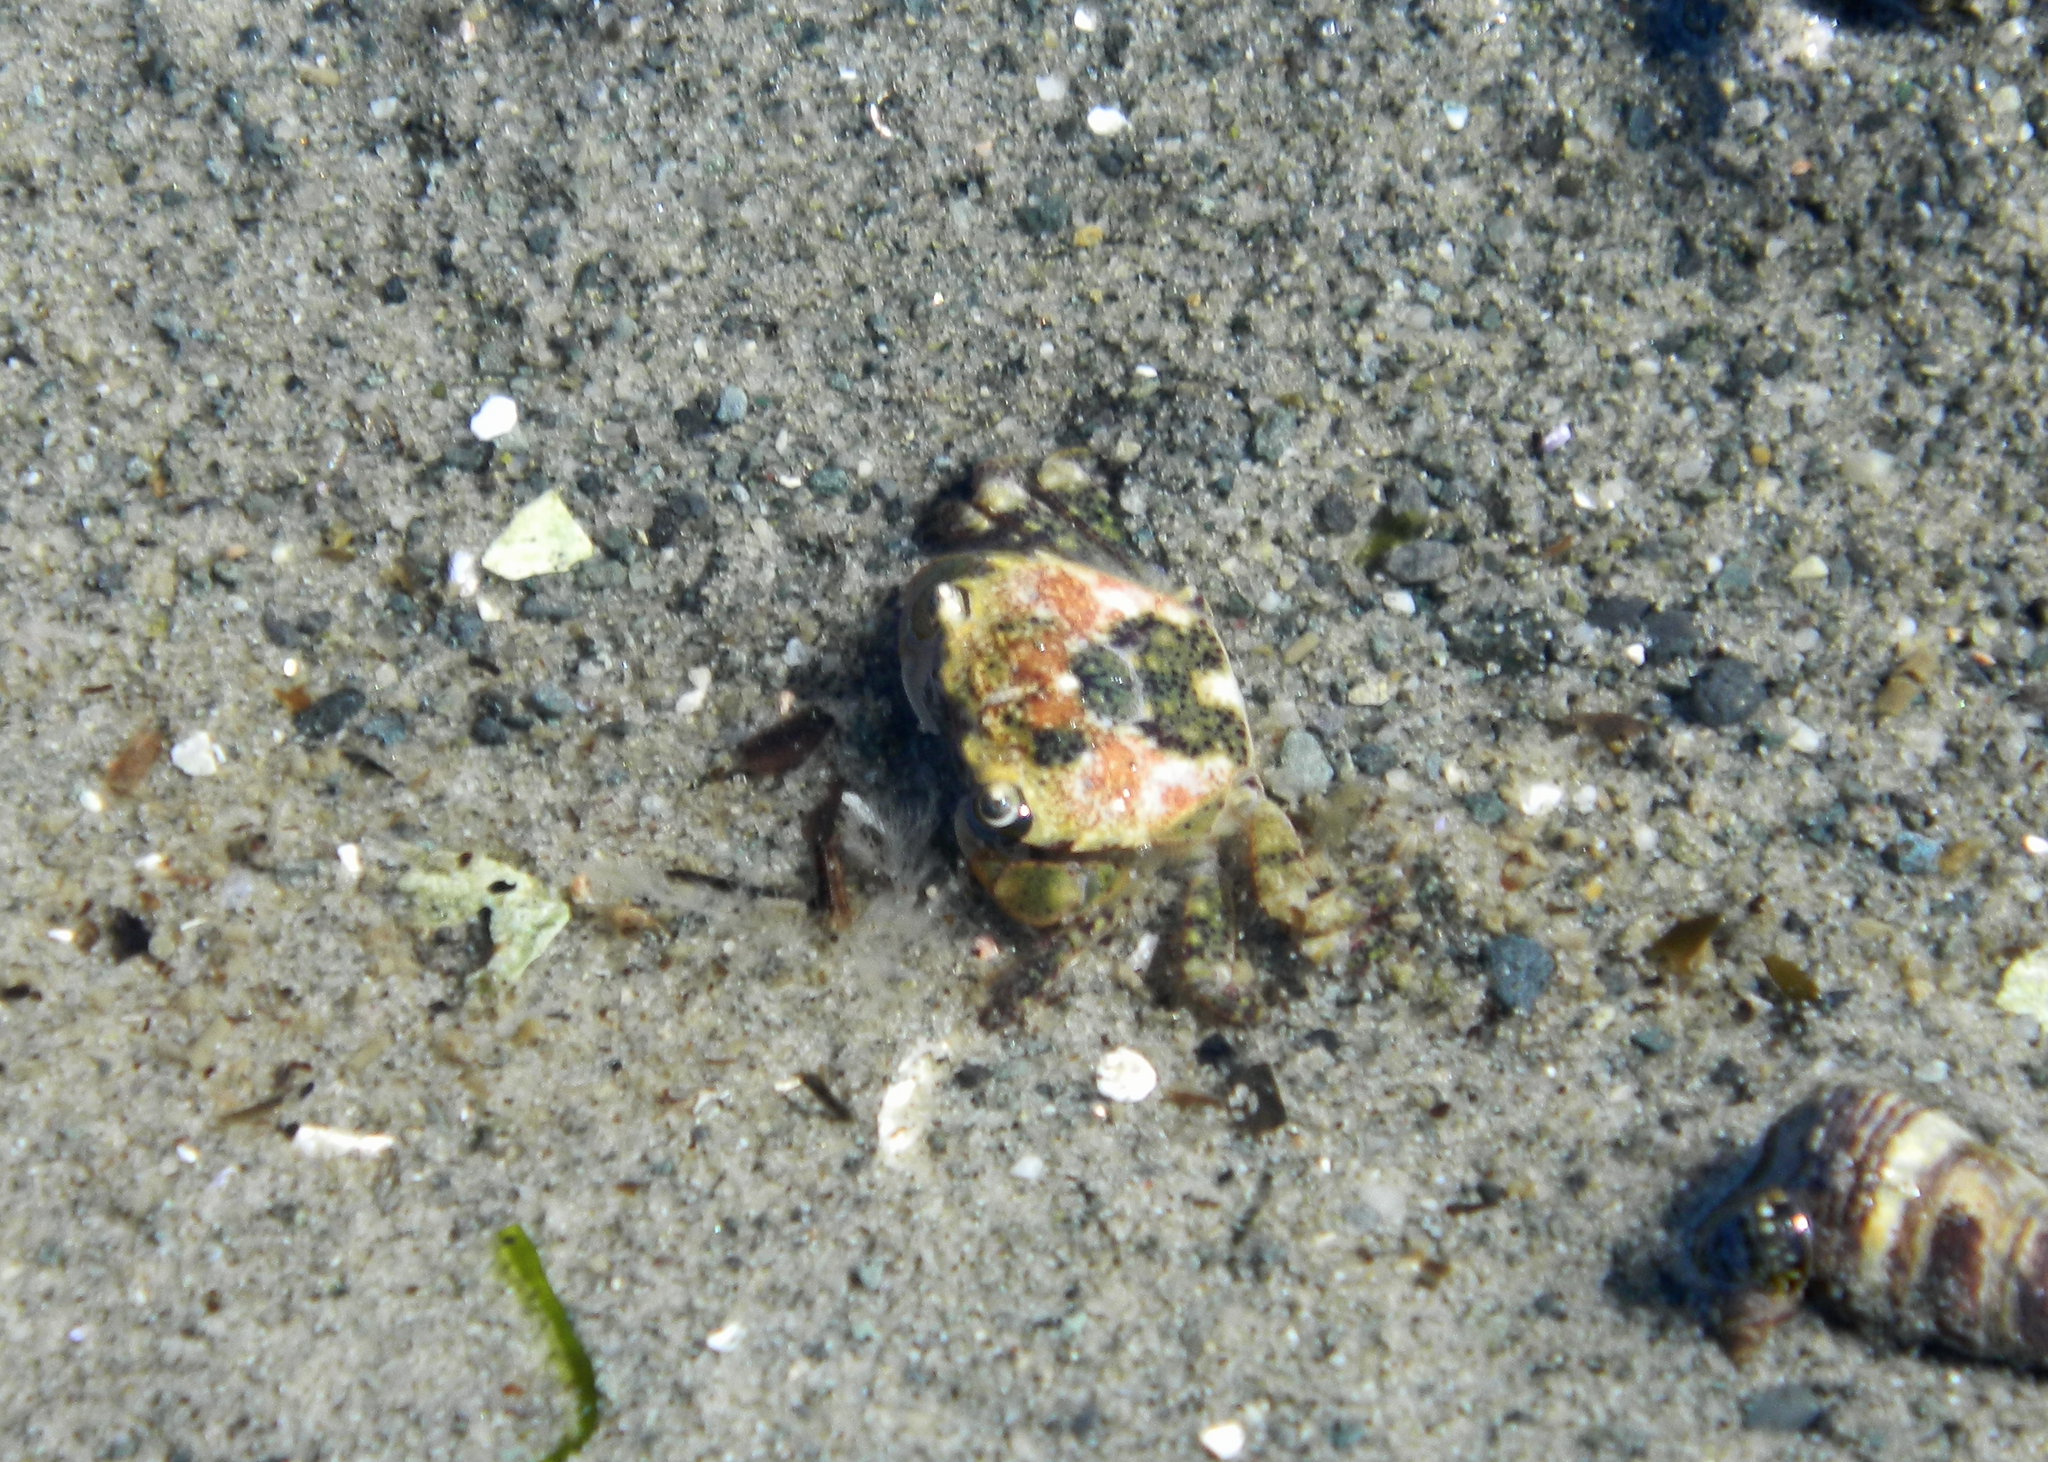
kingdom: Animalia
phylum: Arthropoda
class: Malacostraca
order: Decapoda
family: Varunidae
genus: Hemigrapsus
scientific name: Hemigrapsus oregonensis
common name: Yellow shore crab
